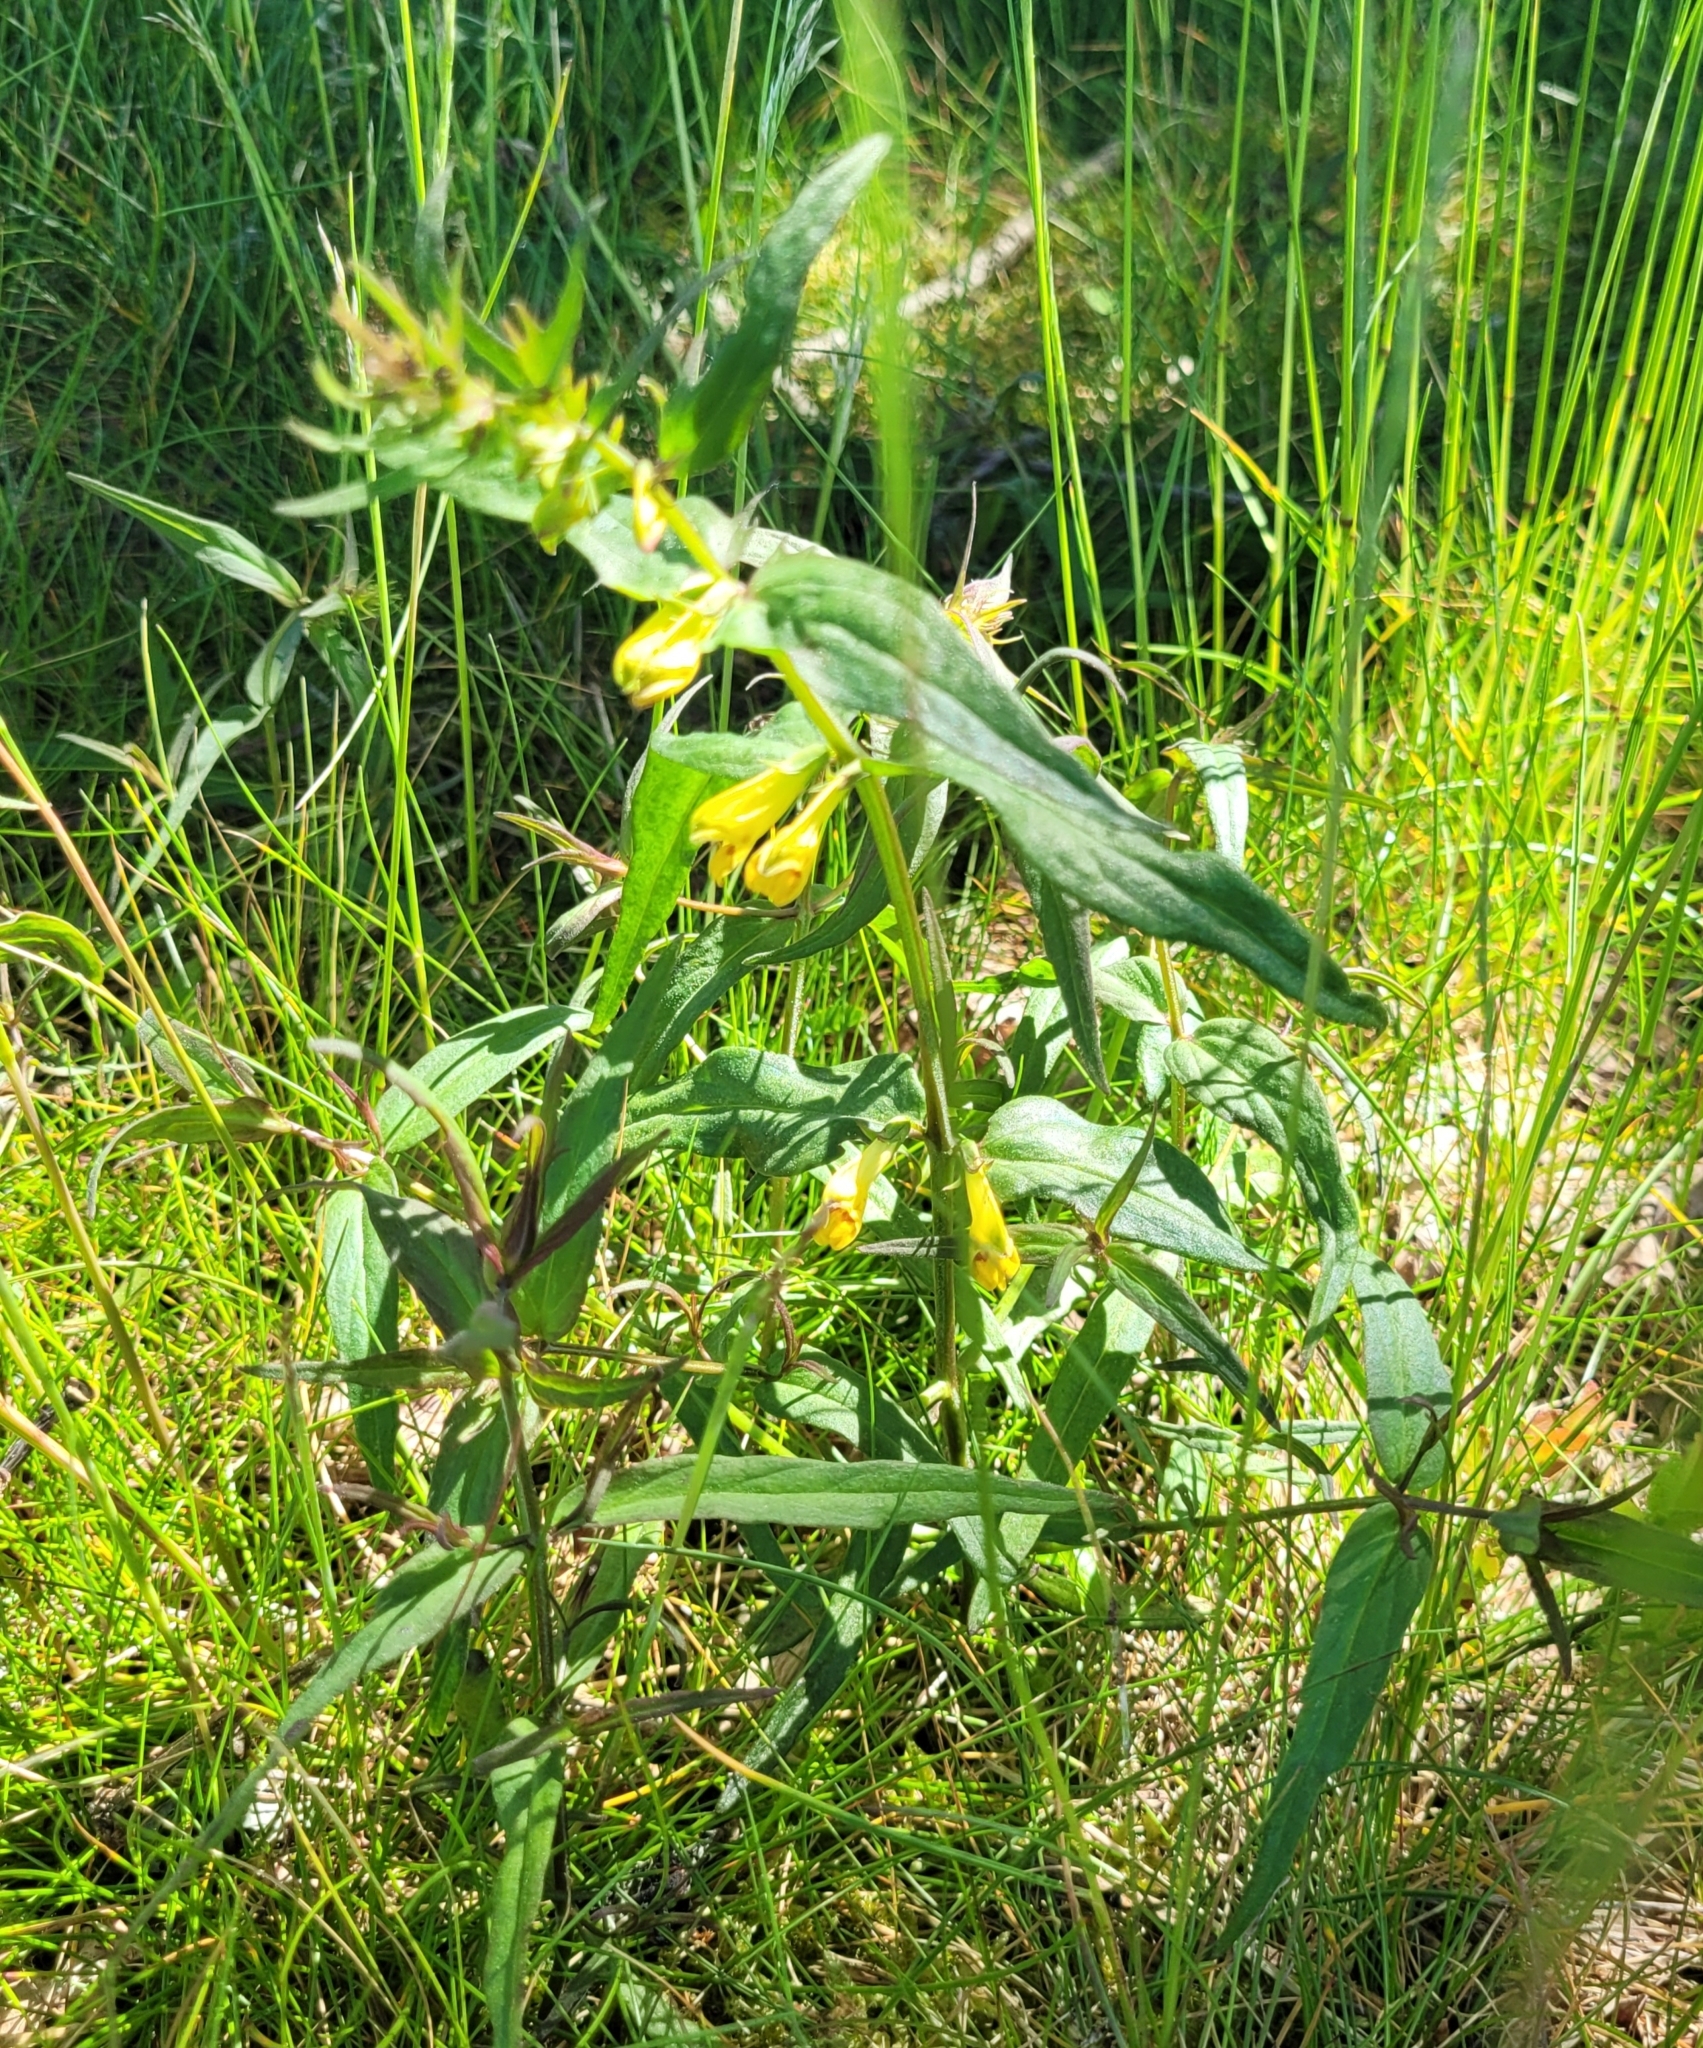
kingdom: Plantae
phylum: Tracheophyta
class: Magnoliopsida
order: Lamiales
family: Orobanchaceae
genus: Melampyrum
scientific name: Melampyrum pratense
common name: Common cow-wheat
